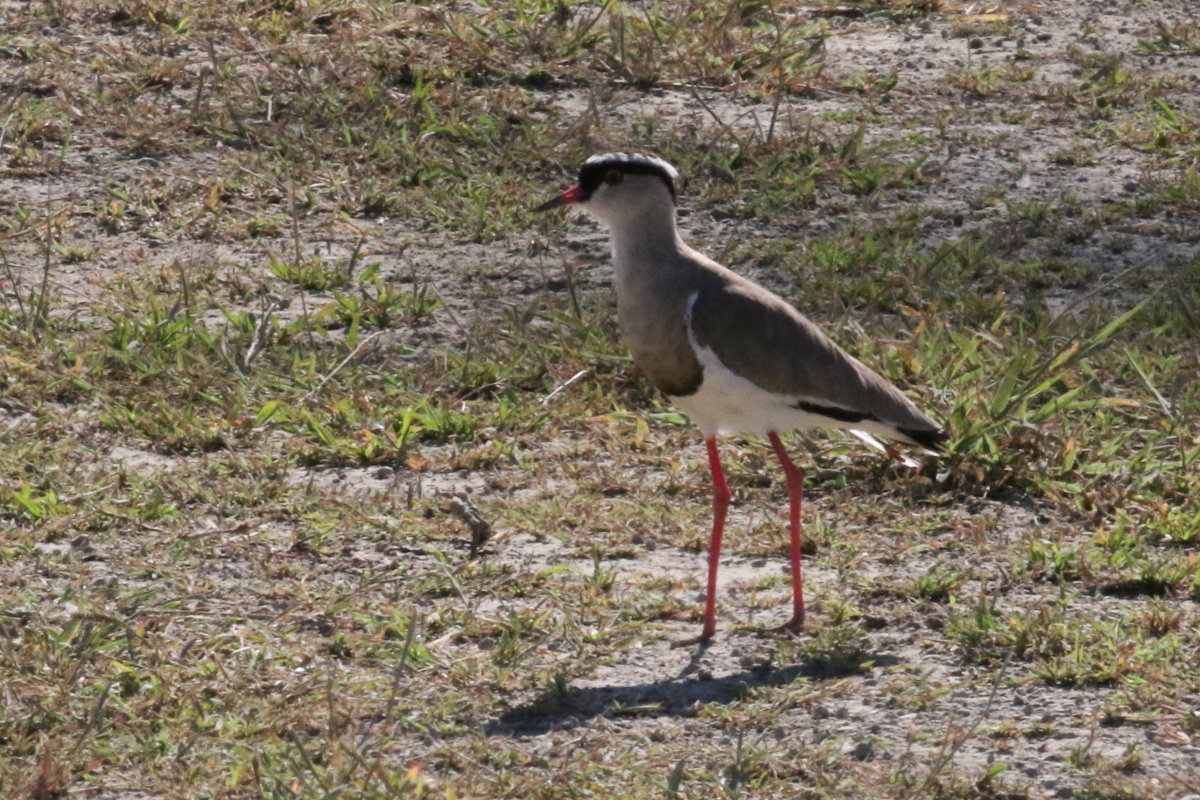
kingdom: Animalia
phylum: Chordata
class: Aves
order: Charadriiformes
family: Charadriidae
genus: Vanellus
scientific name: Vanellus coronatus
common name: Crowned lapwing
